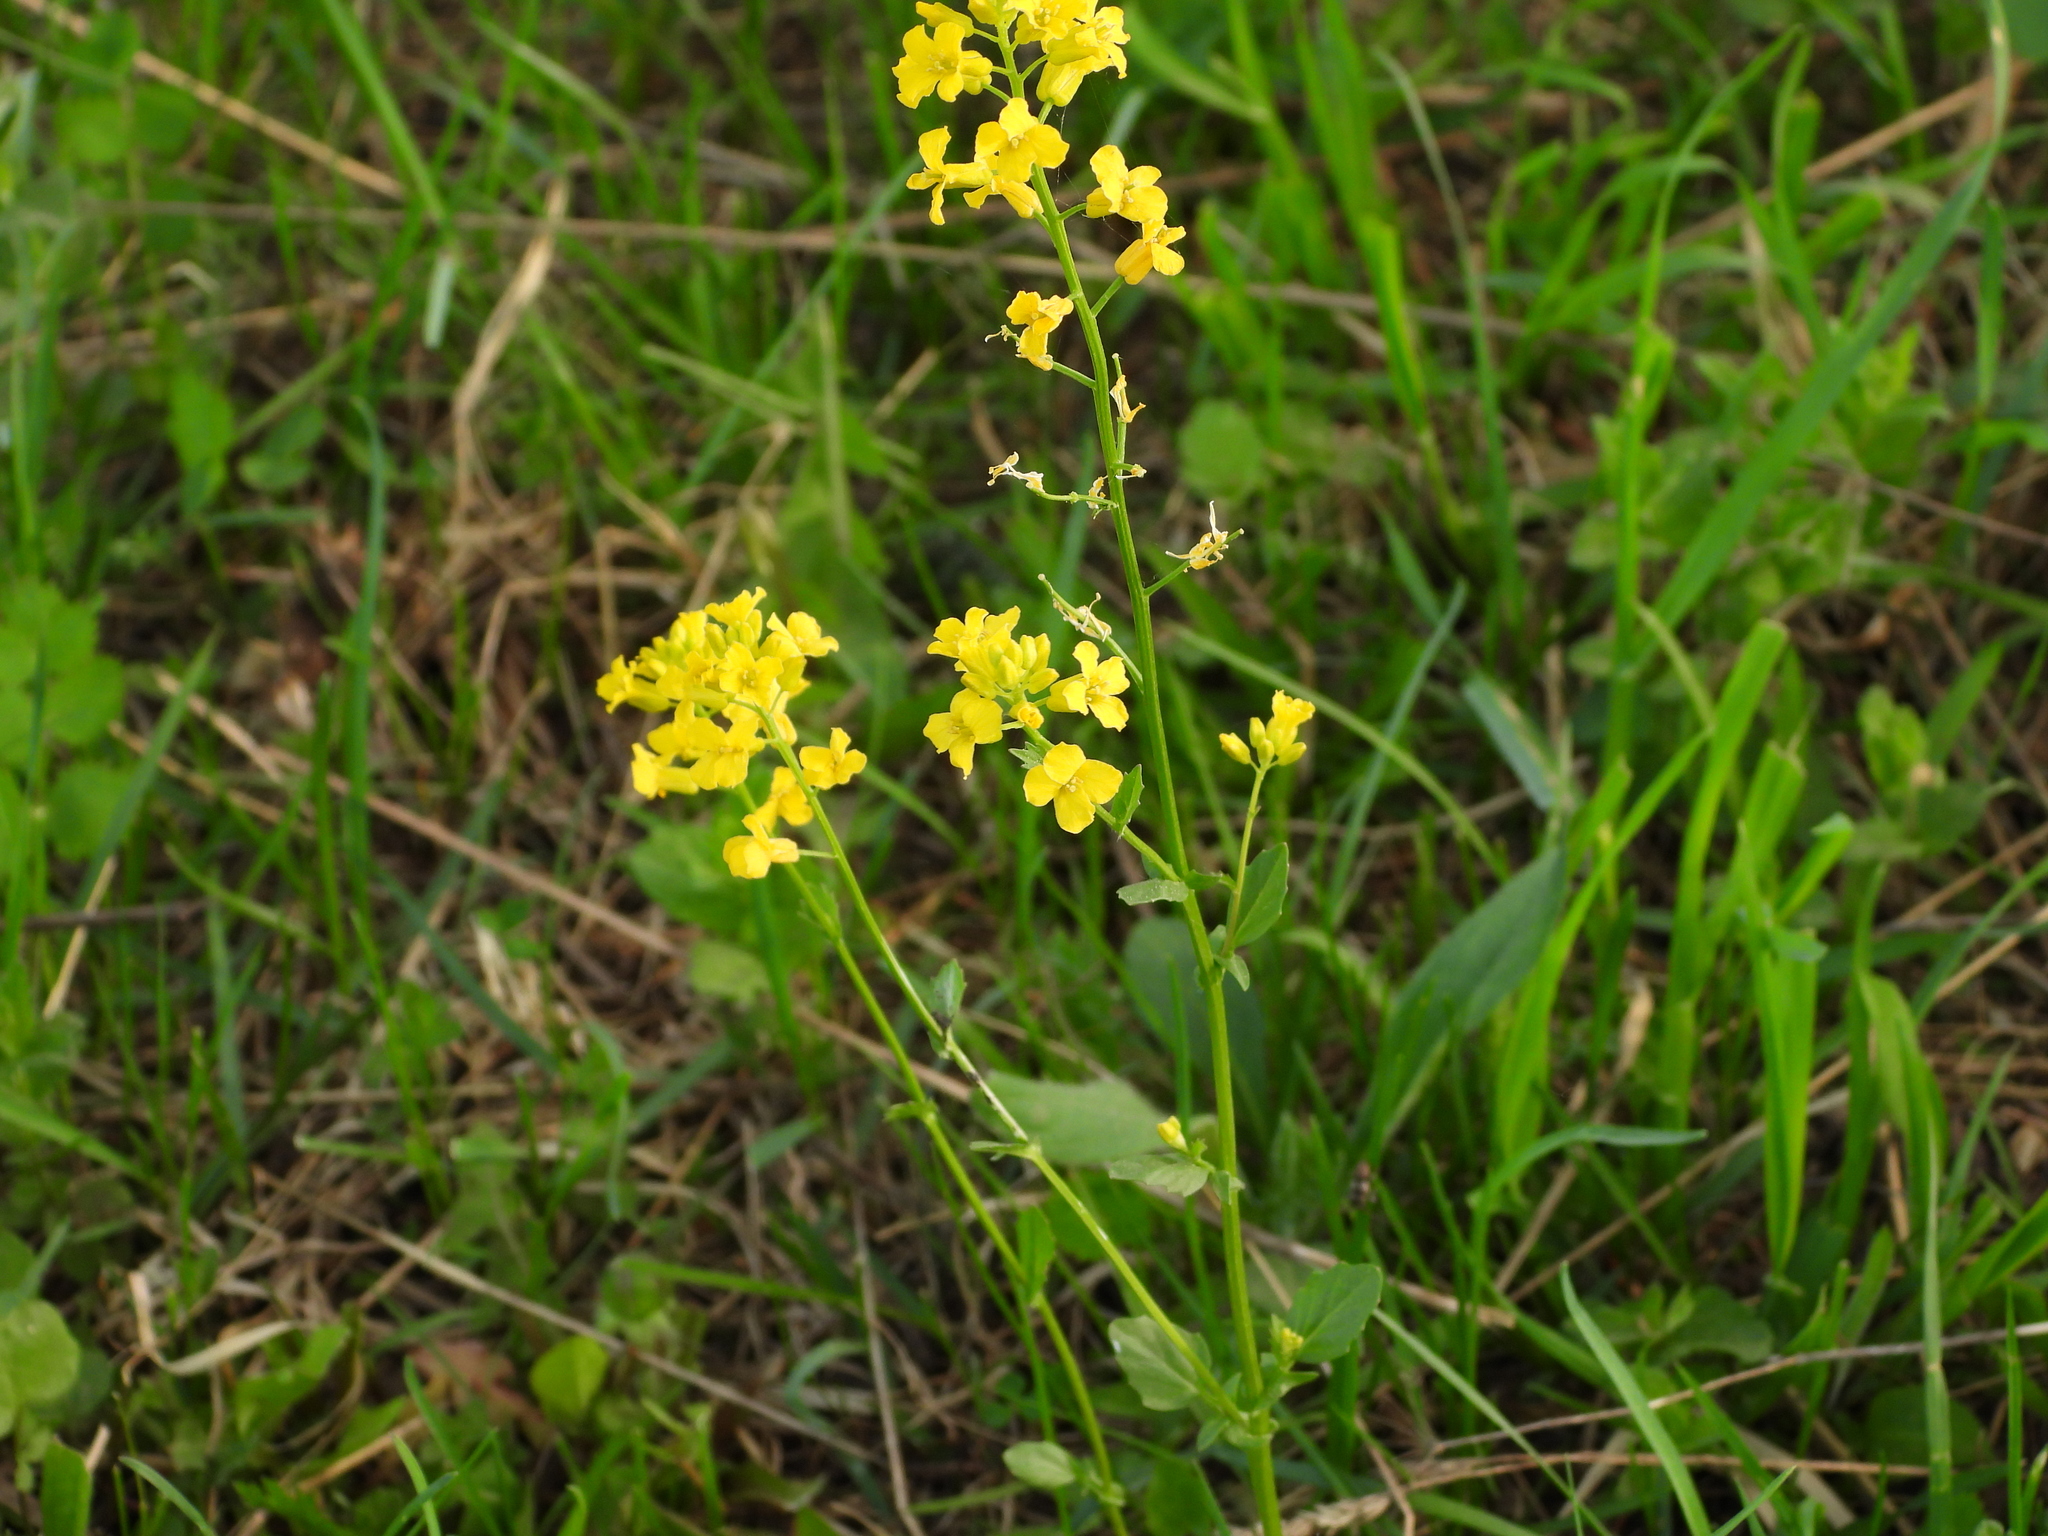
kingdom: Plantae
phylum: Tracheophyta
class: Magnoliopsida
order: Brassicales
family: Brassicaceae
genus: Barbarea
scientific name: Barbarea vulgaris
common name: Cressy-greens
